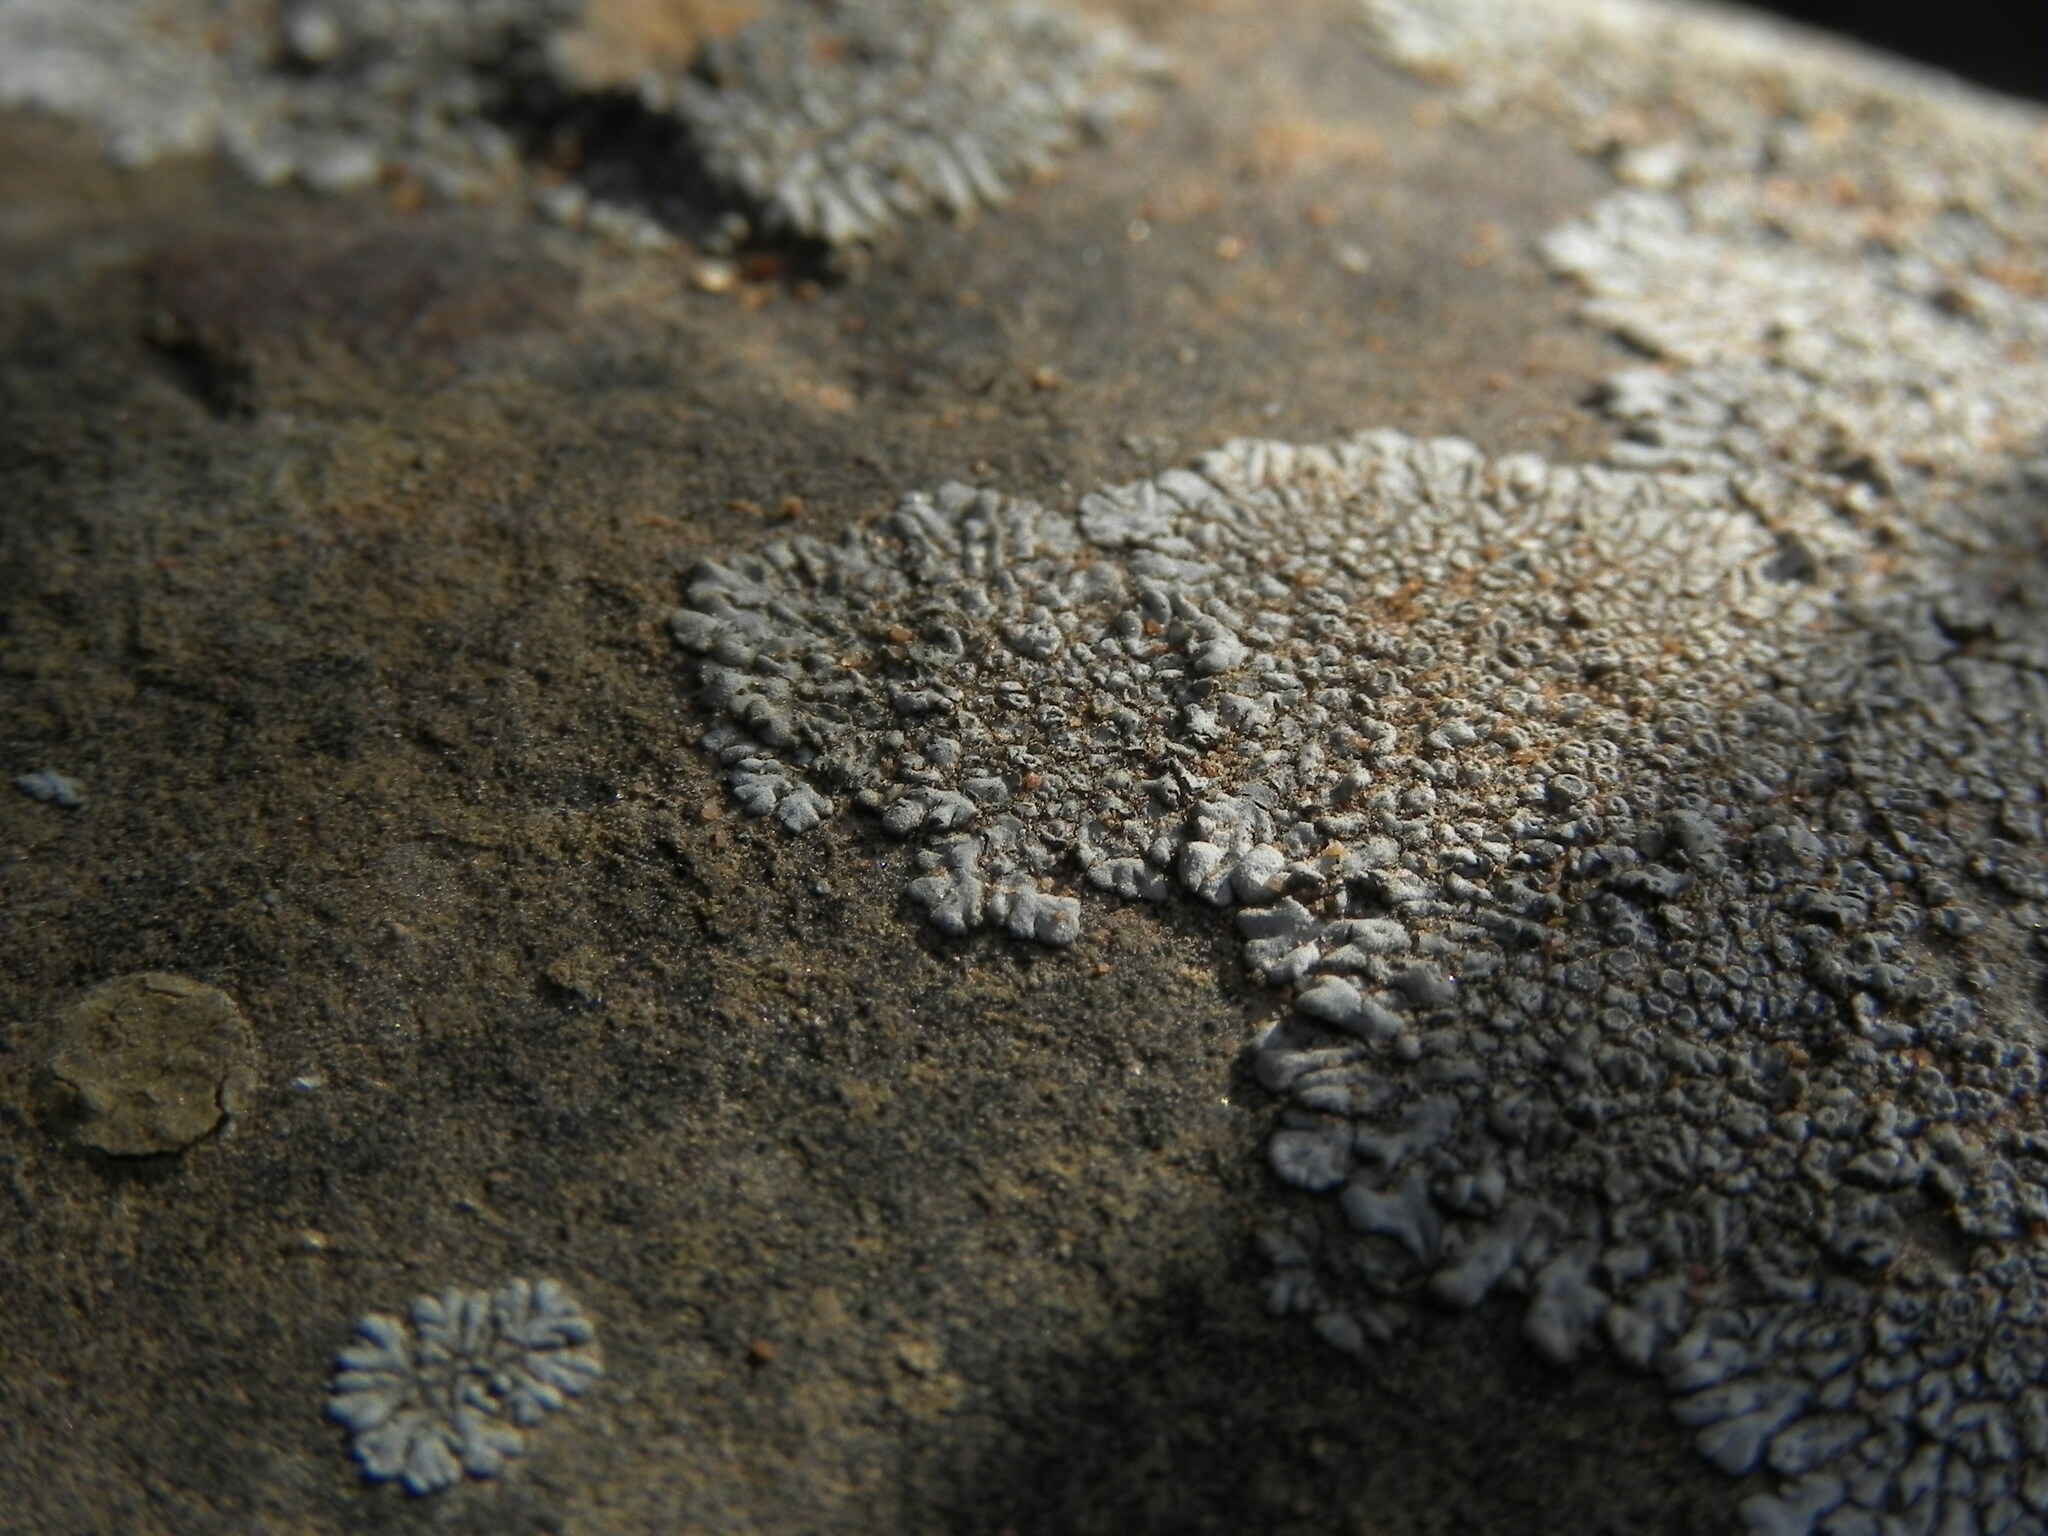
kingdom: Fungi
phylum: Ascomycota
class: Lecanoromycetes
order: Caliciales
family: Caliciaceae
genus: Dimelaena
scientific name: Dimelaena radiata
